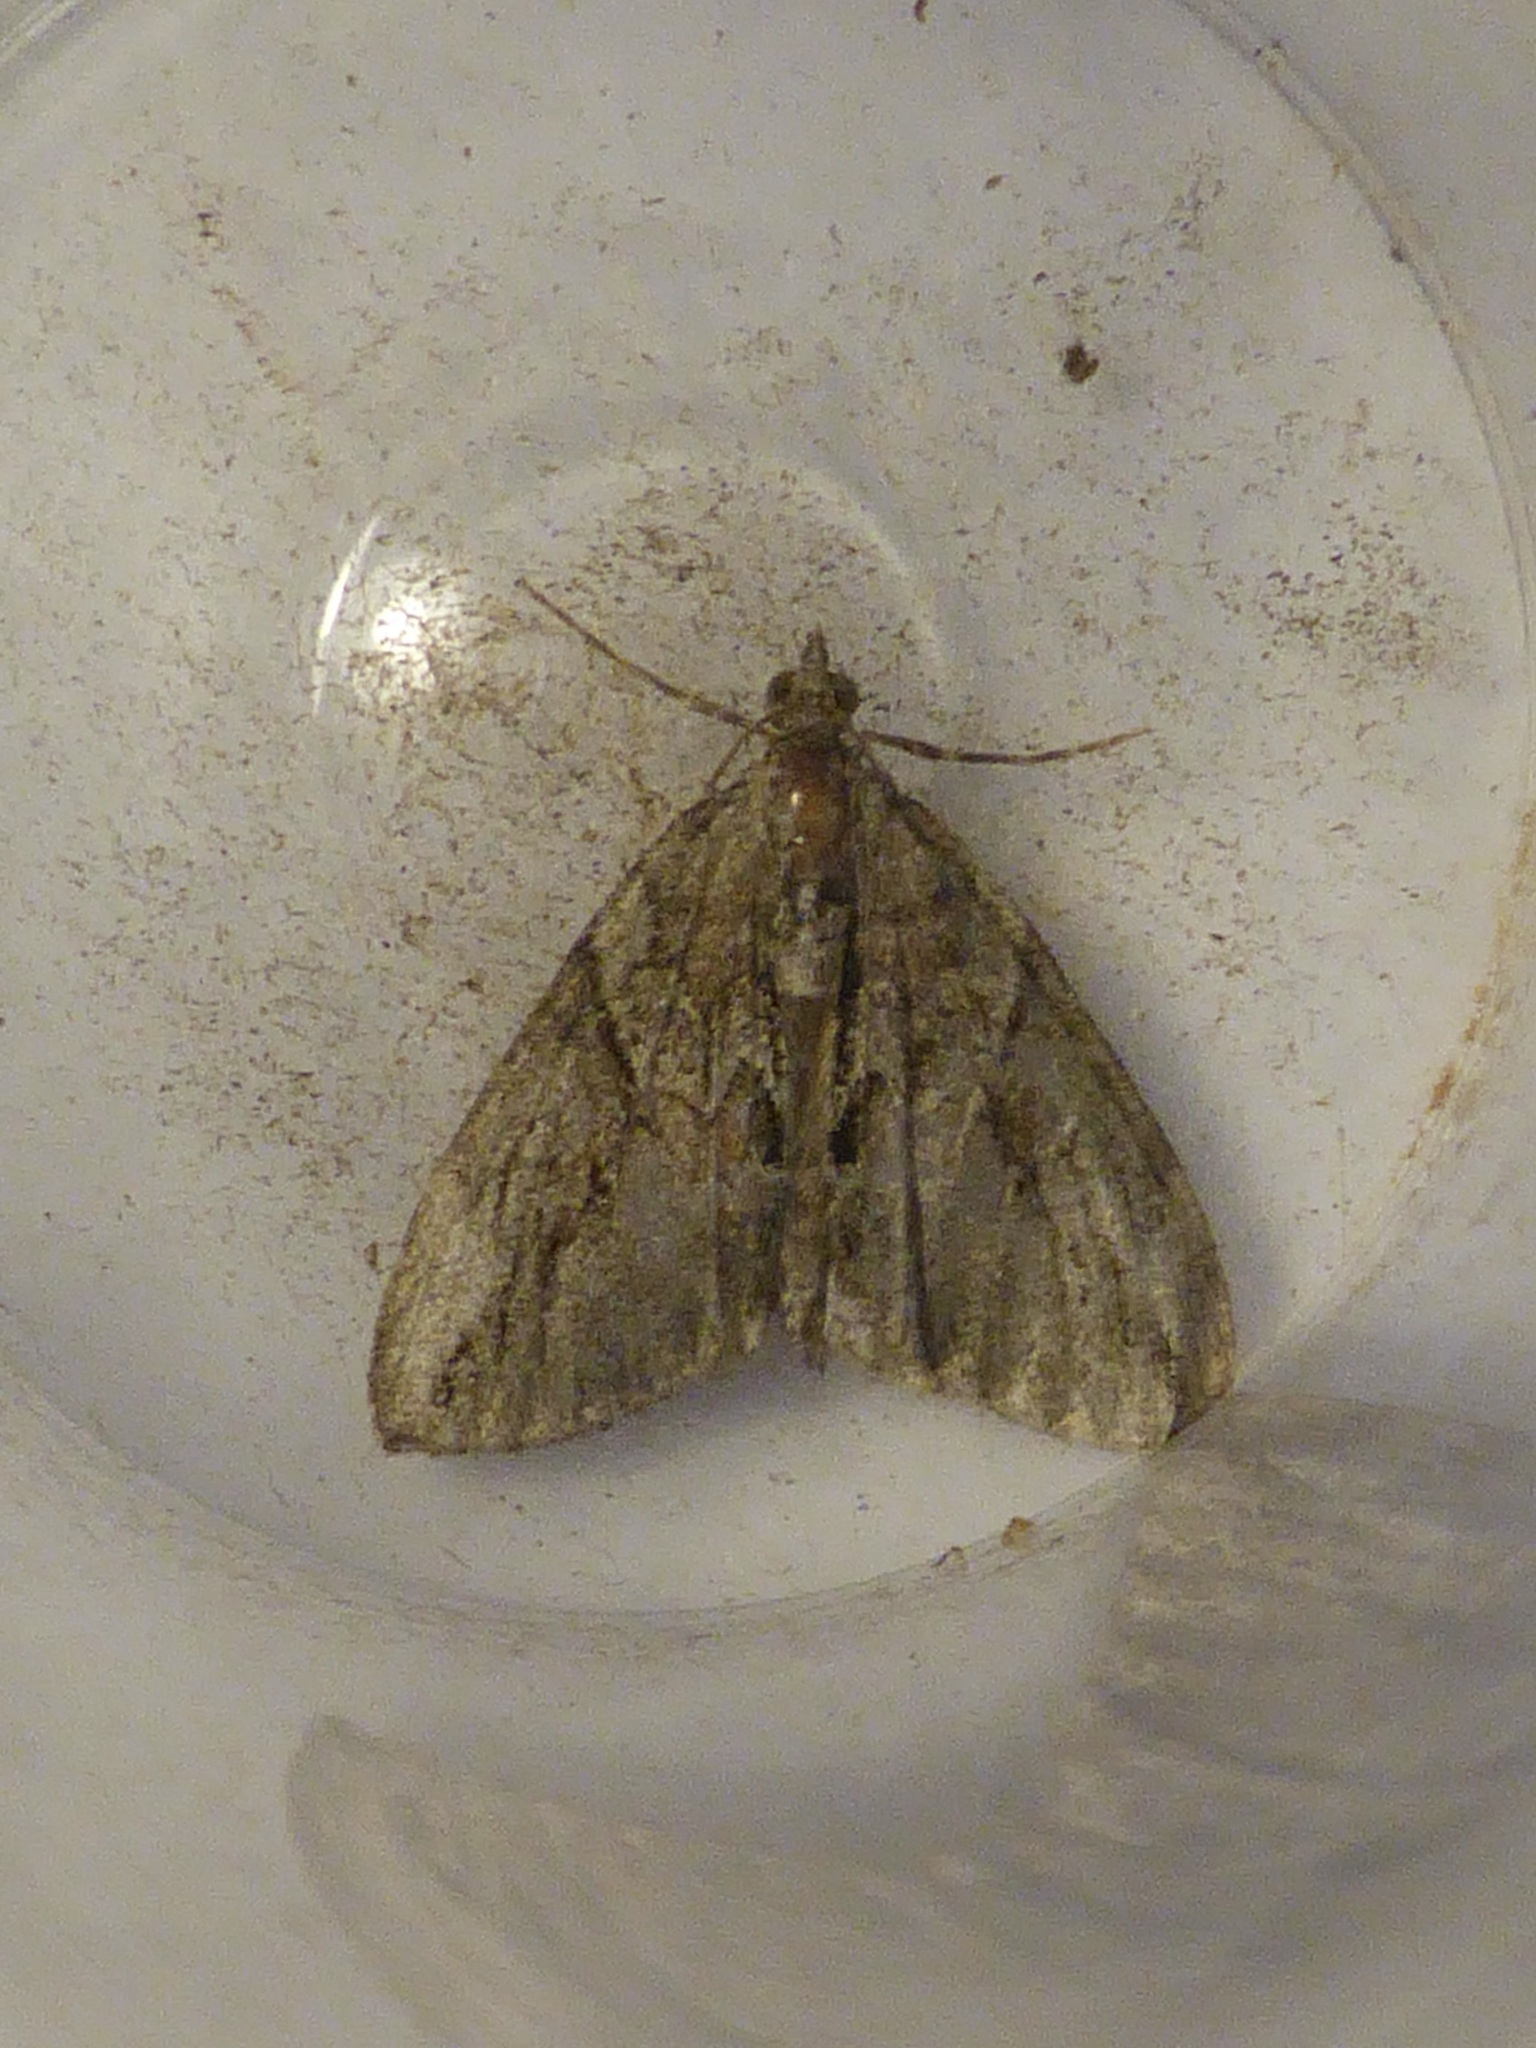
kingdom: Animalia
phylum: Arthropoda
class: Insecta
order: Lepidoptera
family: Geometridae
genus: Thera
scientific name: Thera cupressata
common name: Cypress carpet
